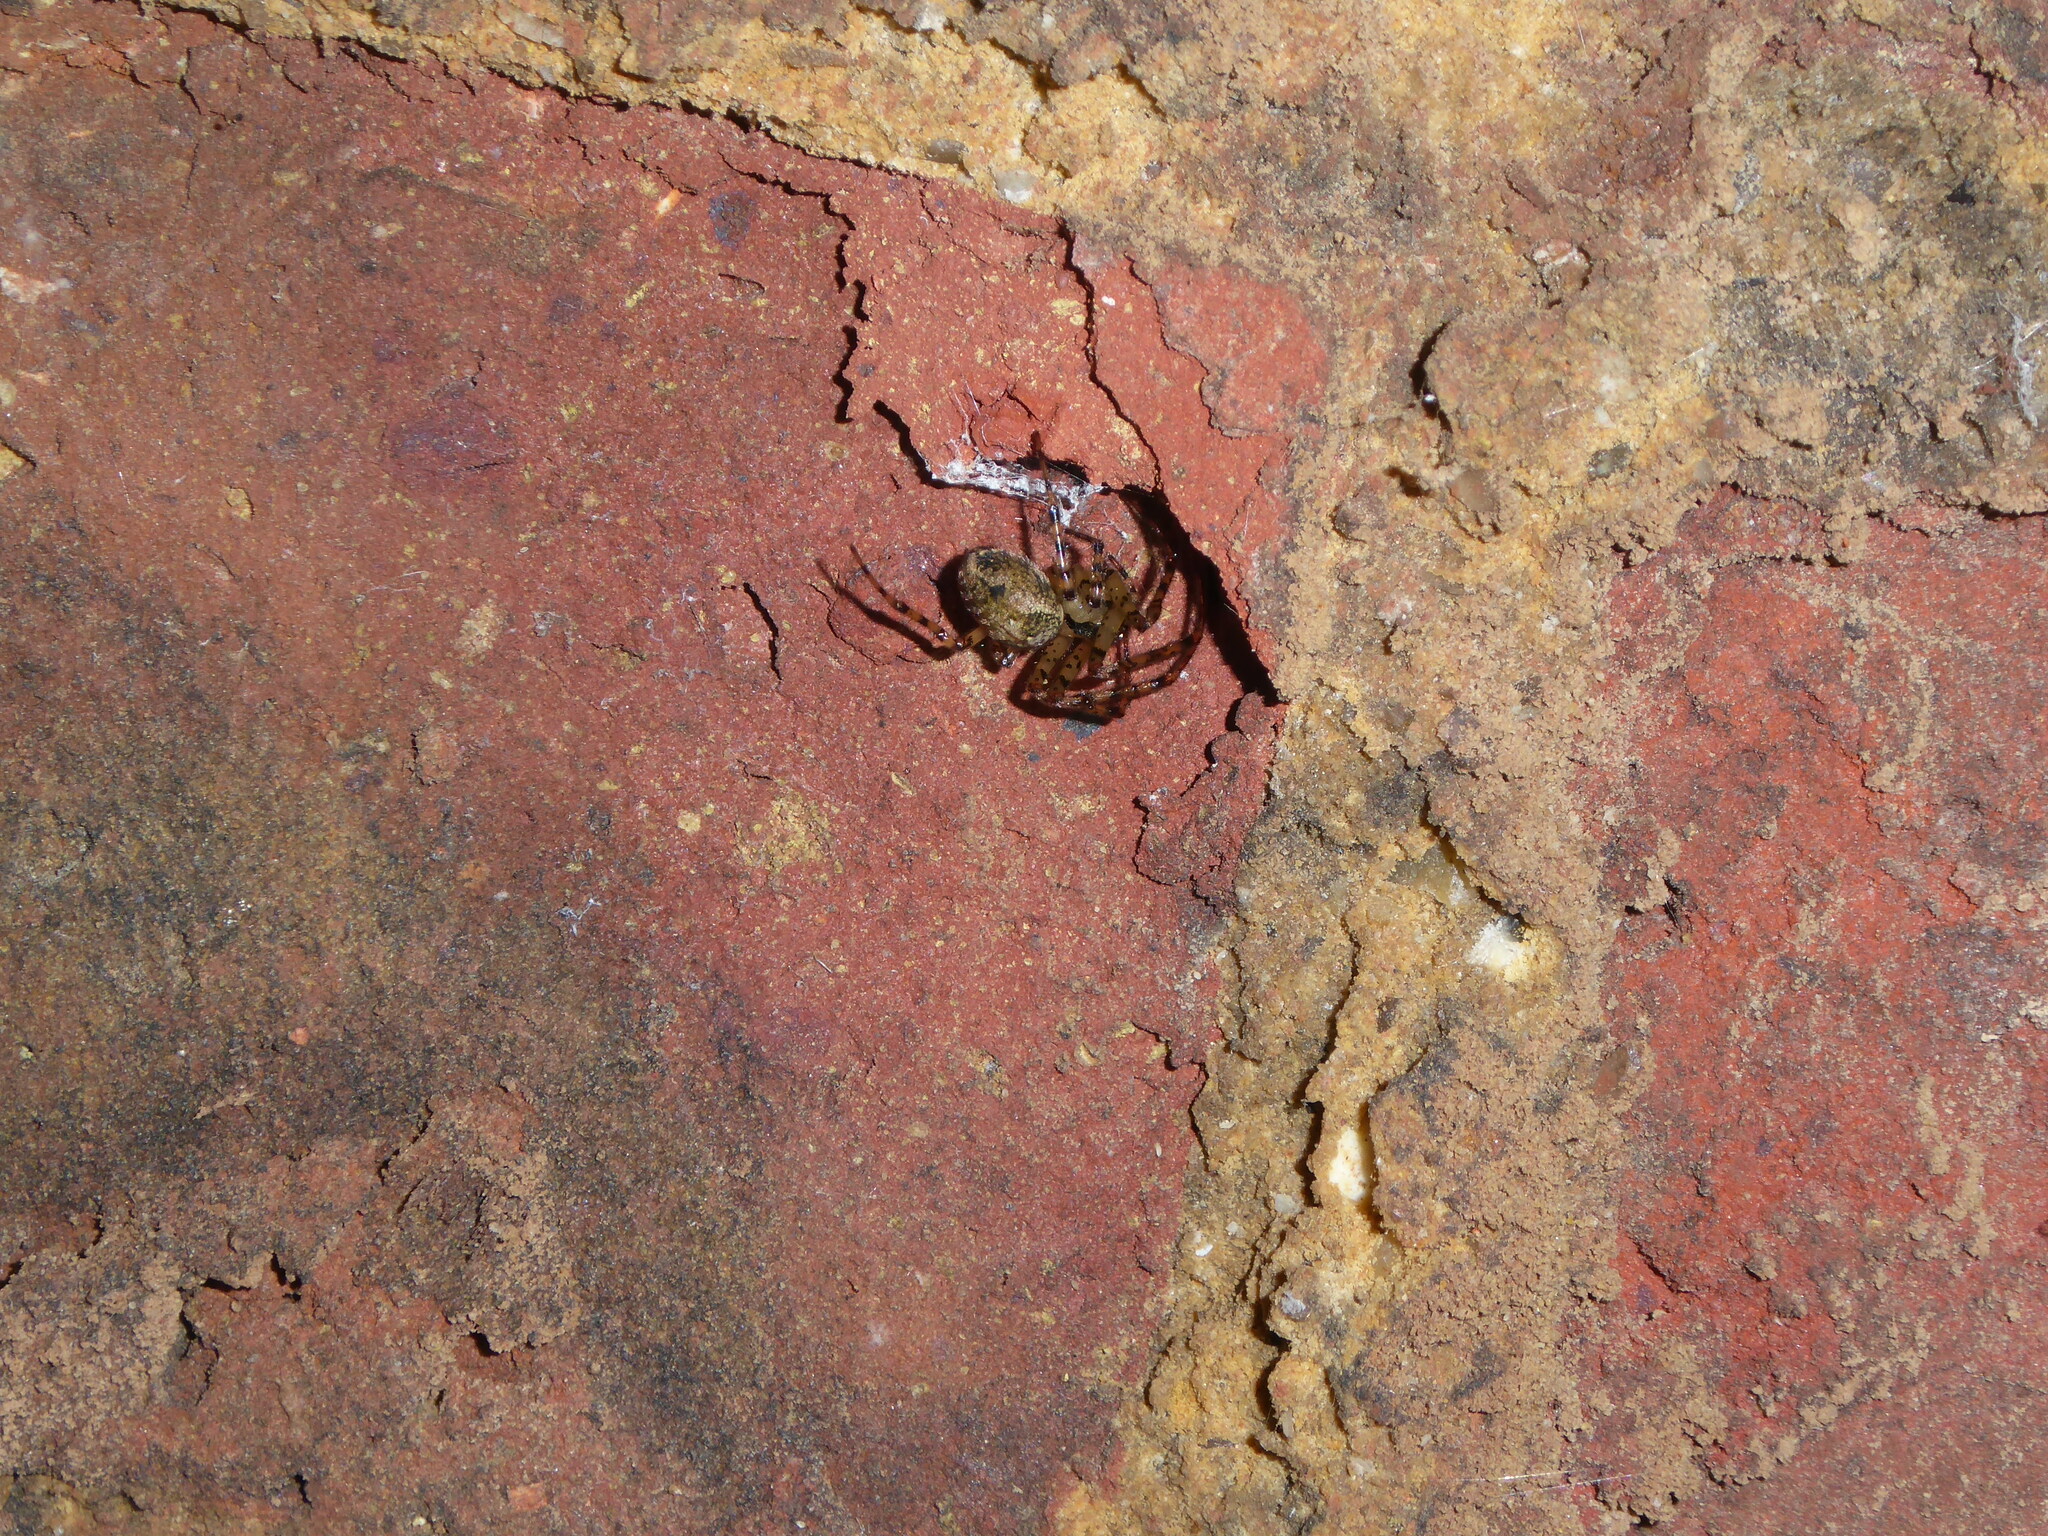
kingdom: Animalia
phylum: Arthropoda
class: Arachnida
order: Araneae
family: Tetragnathidae
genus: Metellina
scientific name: Metellina merianae
